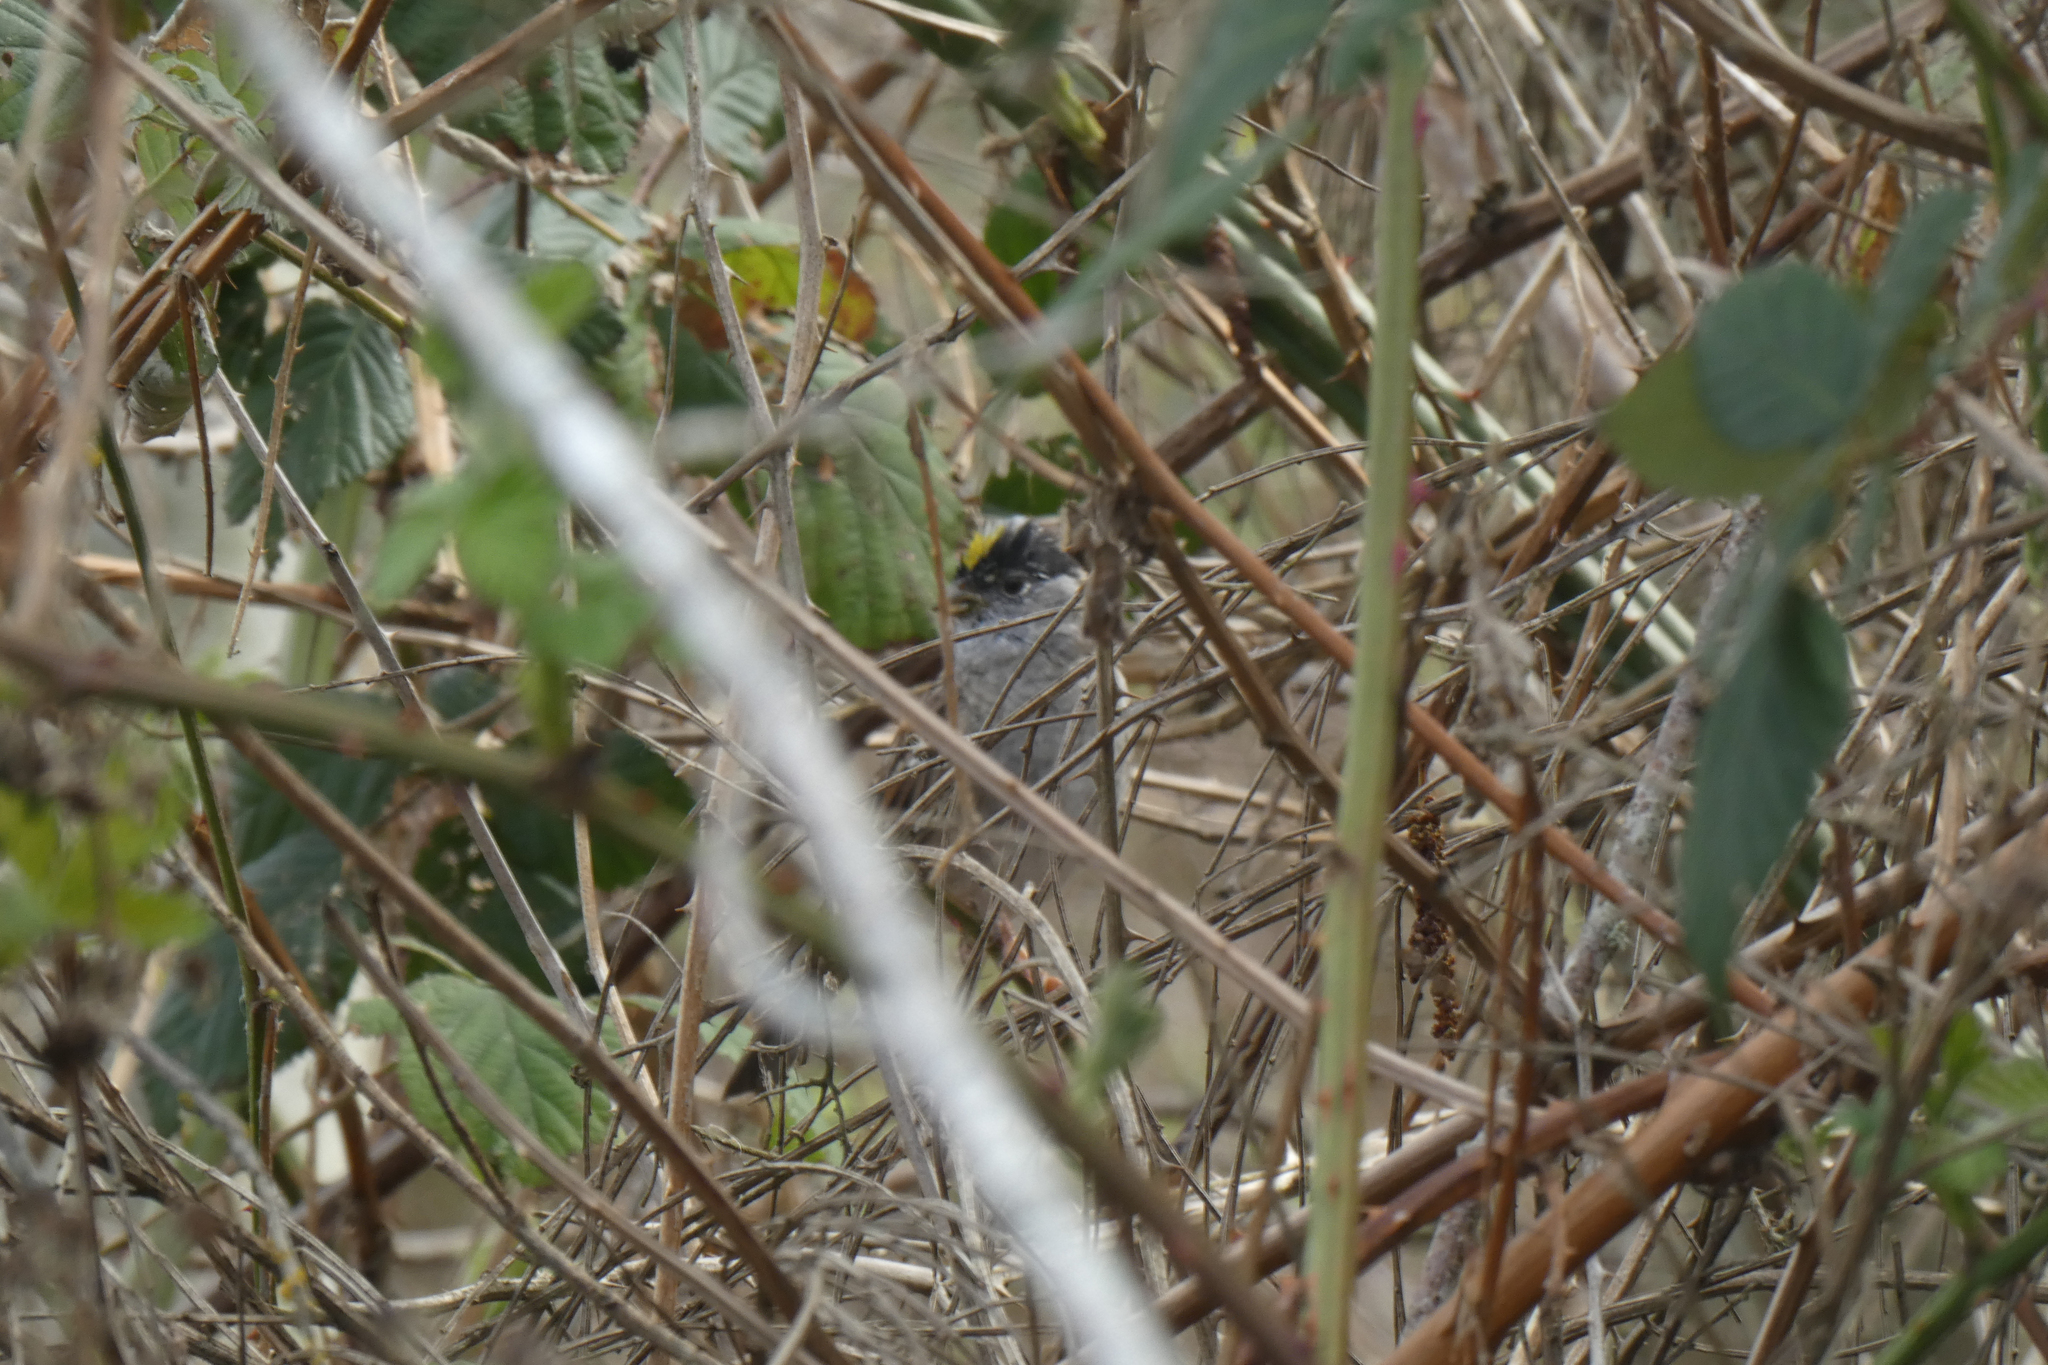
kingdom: Animalia
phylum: Chordata
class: Aves
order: Passeriformes
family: Passerellidae
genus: Zonotrichia
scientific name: Zonotrichia atricapilla
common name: Golden-crowned sparrow
